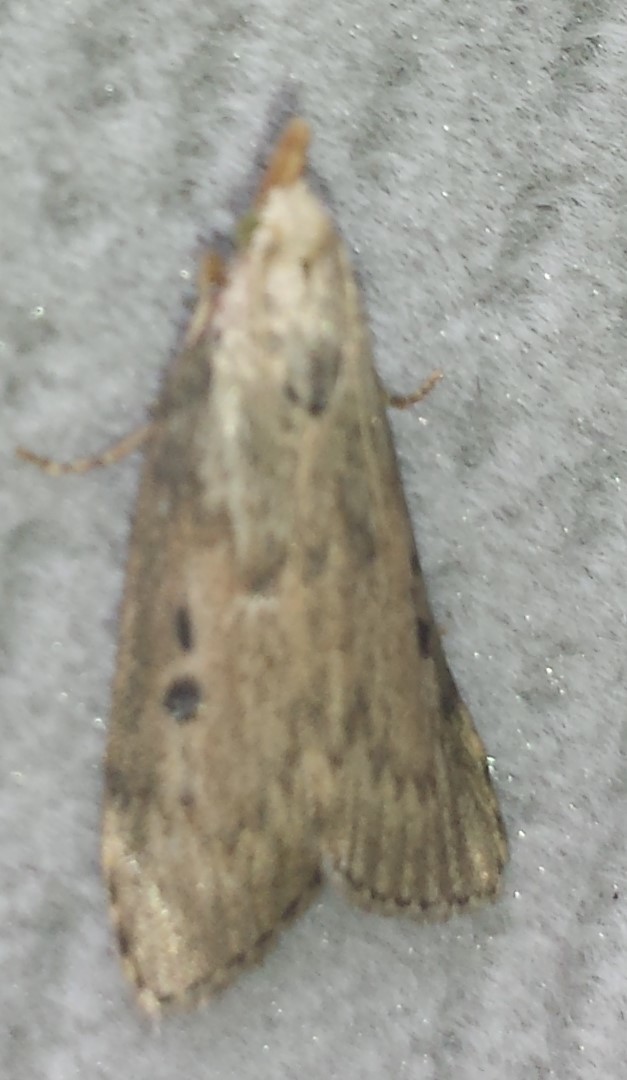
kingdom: Animalia
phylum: Arthropoda
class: Insecta
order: Lepidoptera
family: Pyralidae
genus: Aphomia
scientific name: Aphomia sociella
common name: Bee moth
